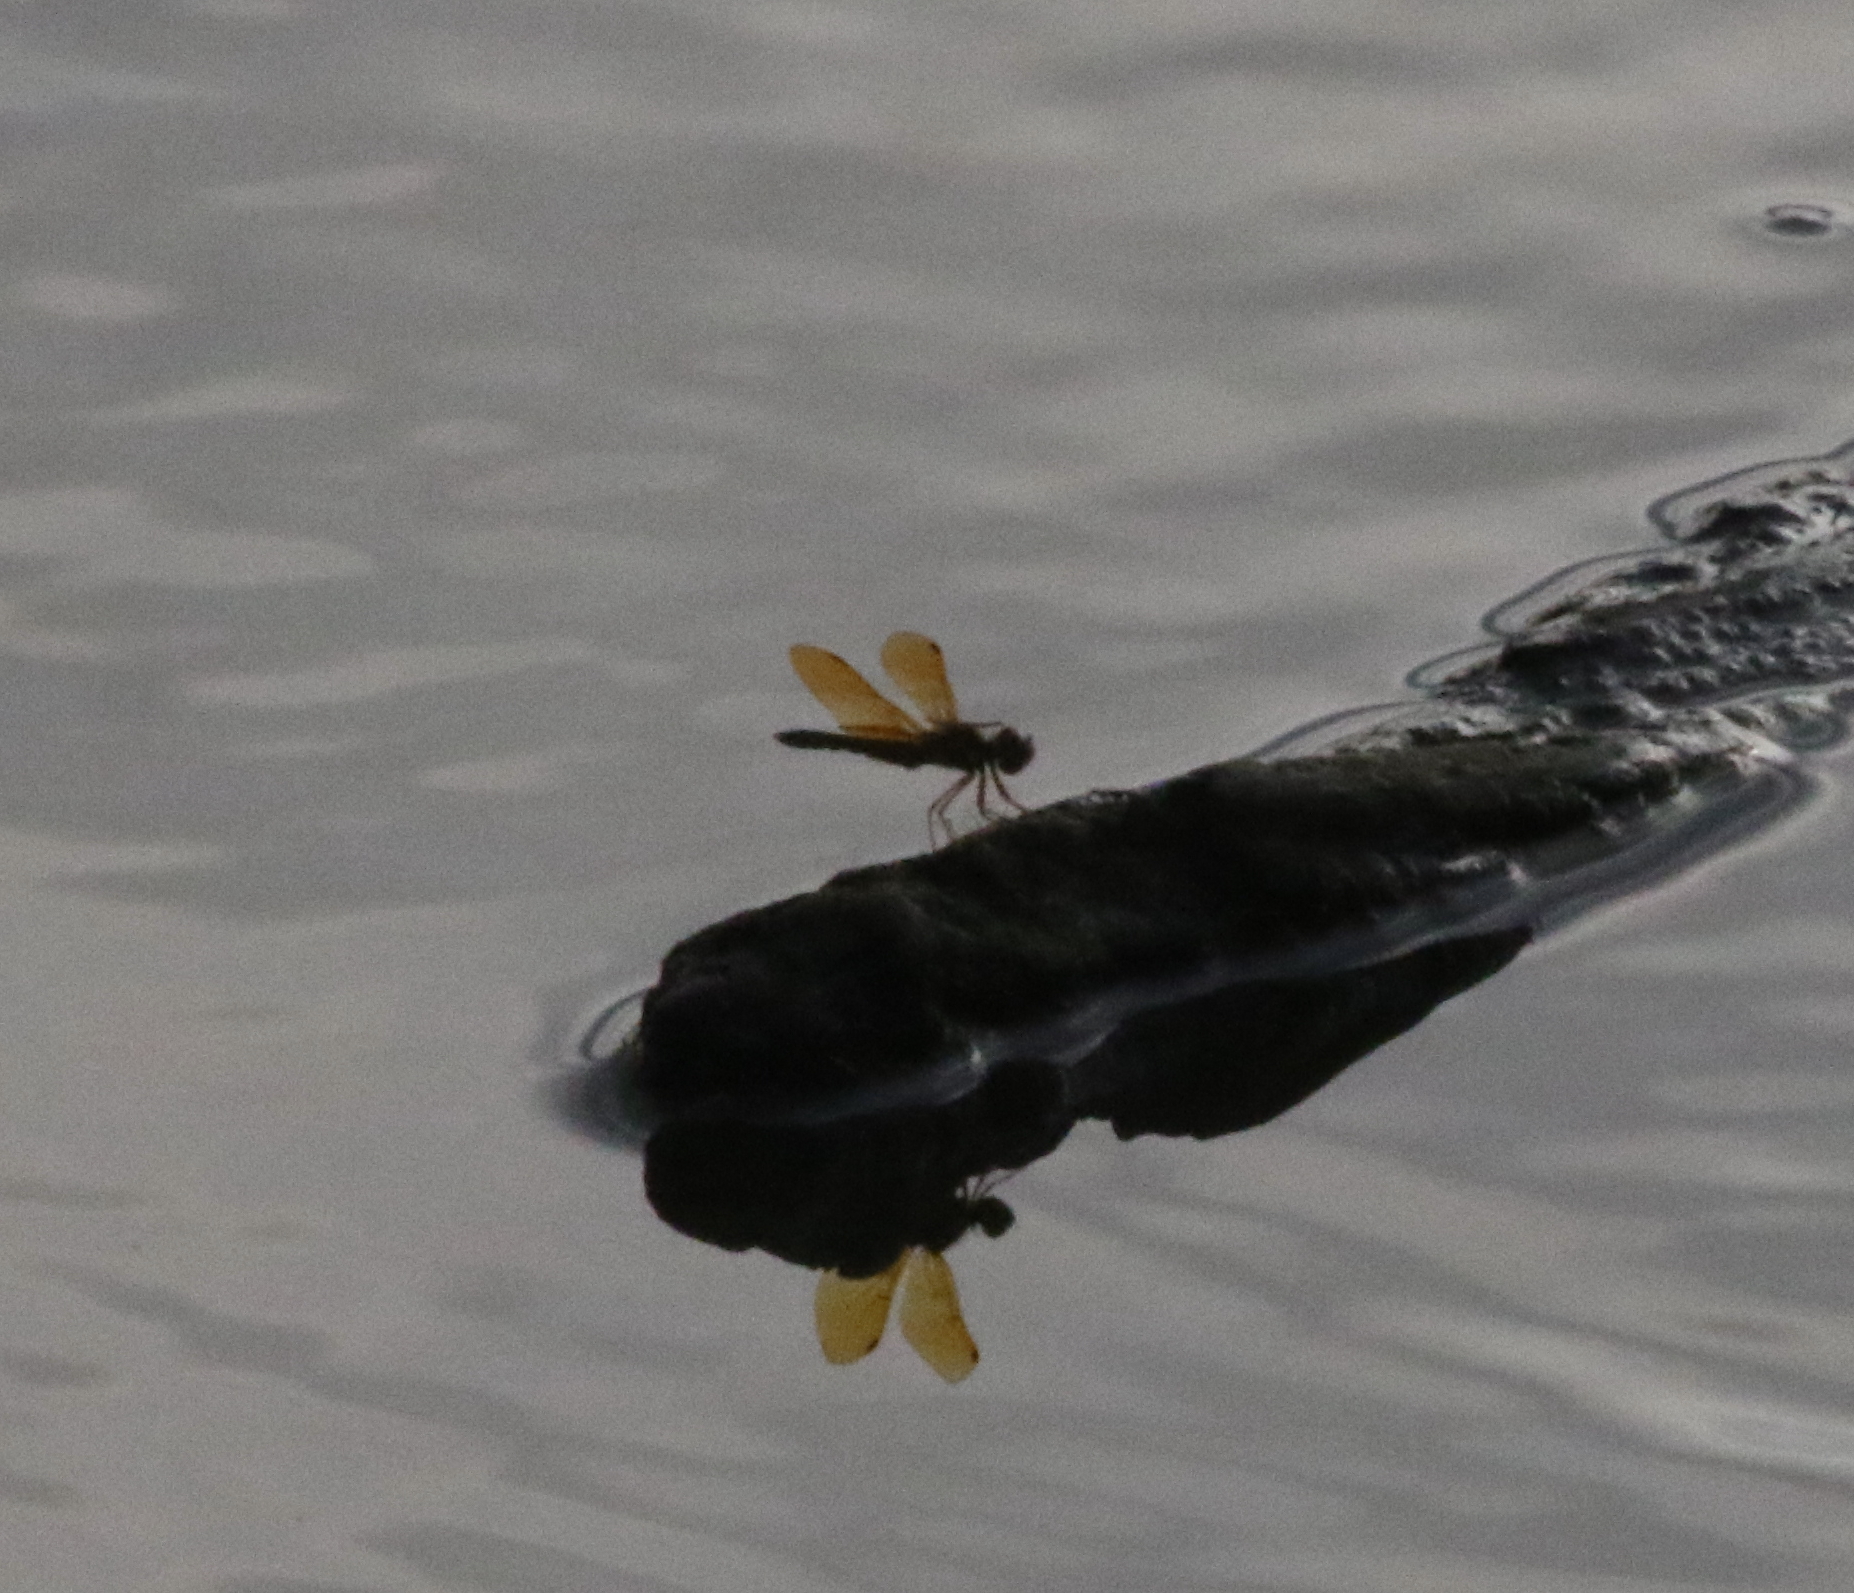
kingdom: Animalia
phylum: Arthropoda
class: Insecta
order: Odonata
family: Libellulidae
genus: Perithemis
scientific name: Perithemis tenera
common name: Eastern amberwing
